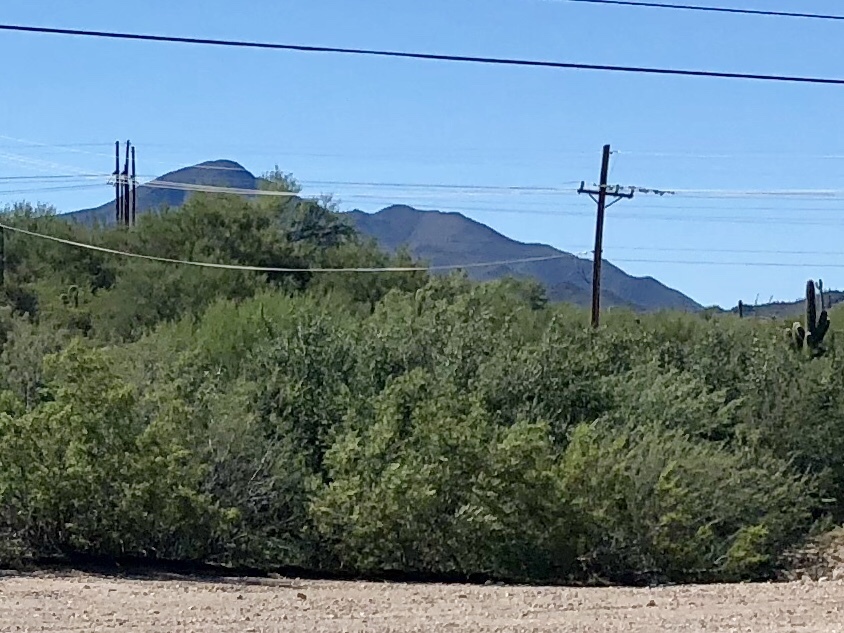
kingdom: Plantae
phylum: Tracheophyta
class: Magnoliopsida
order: Zygophyllales
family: Zygophyllaceae
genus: Larrea
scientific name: Larrea tridentata
